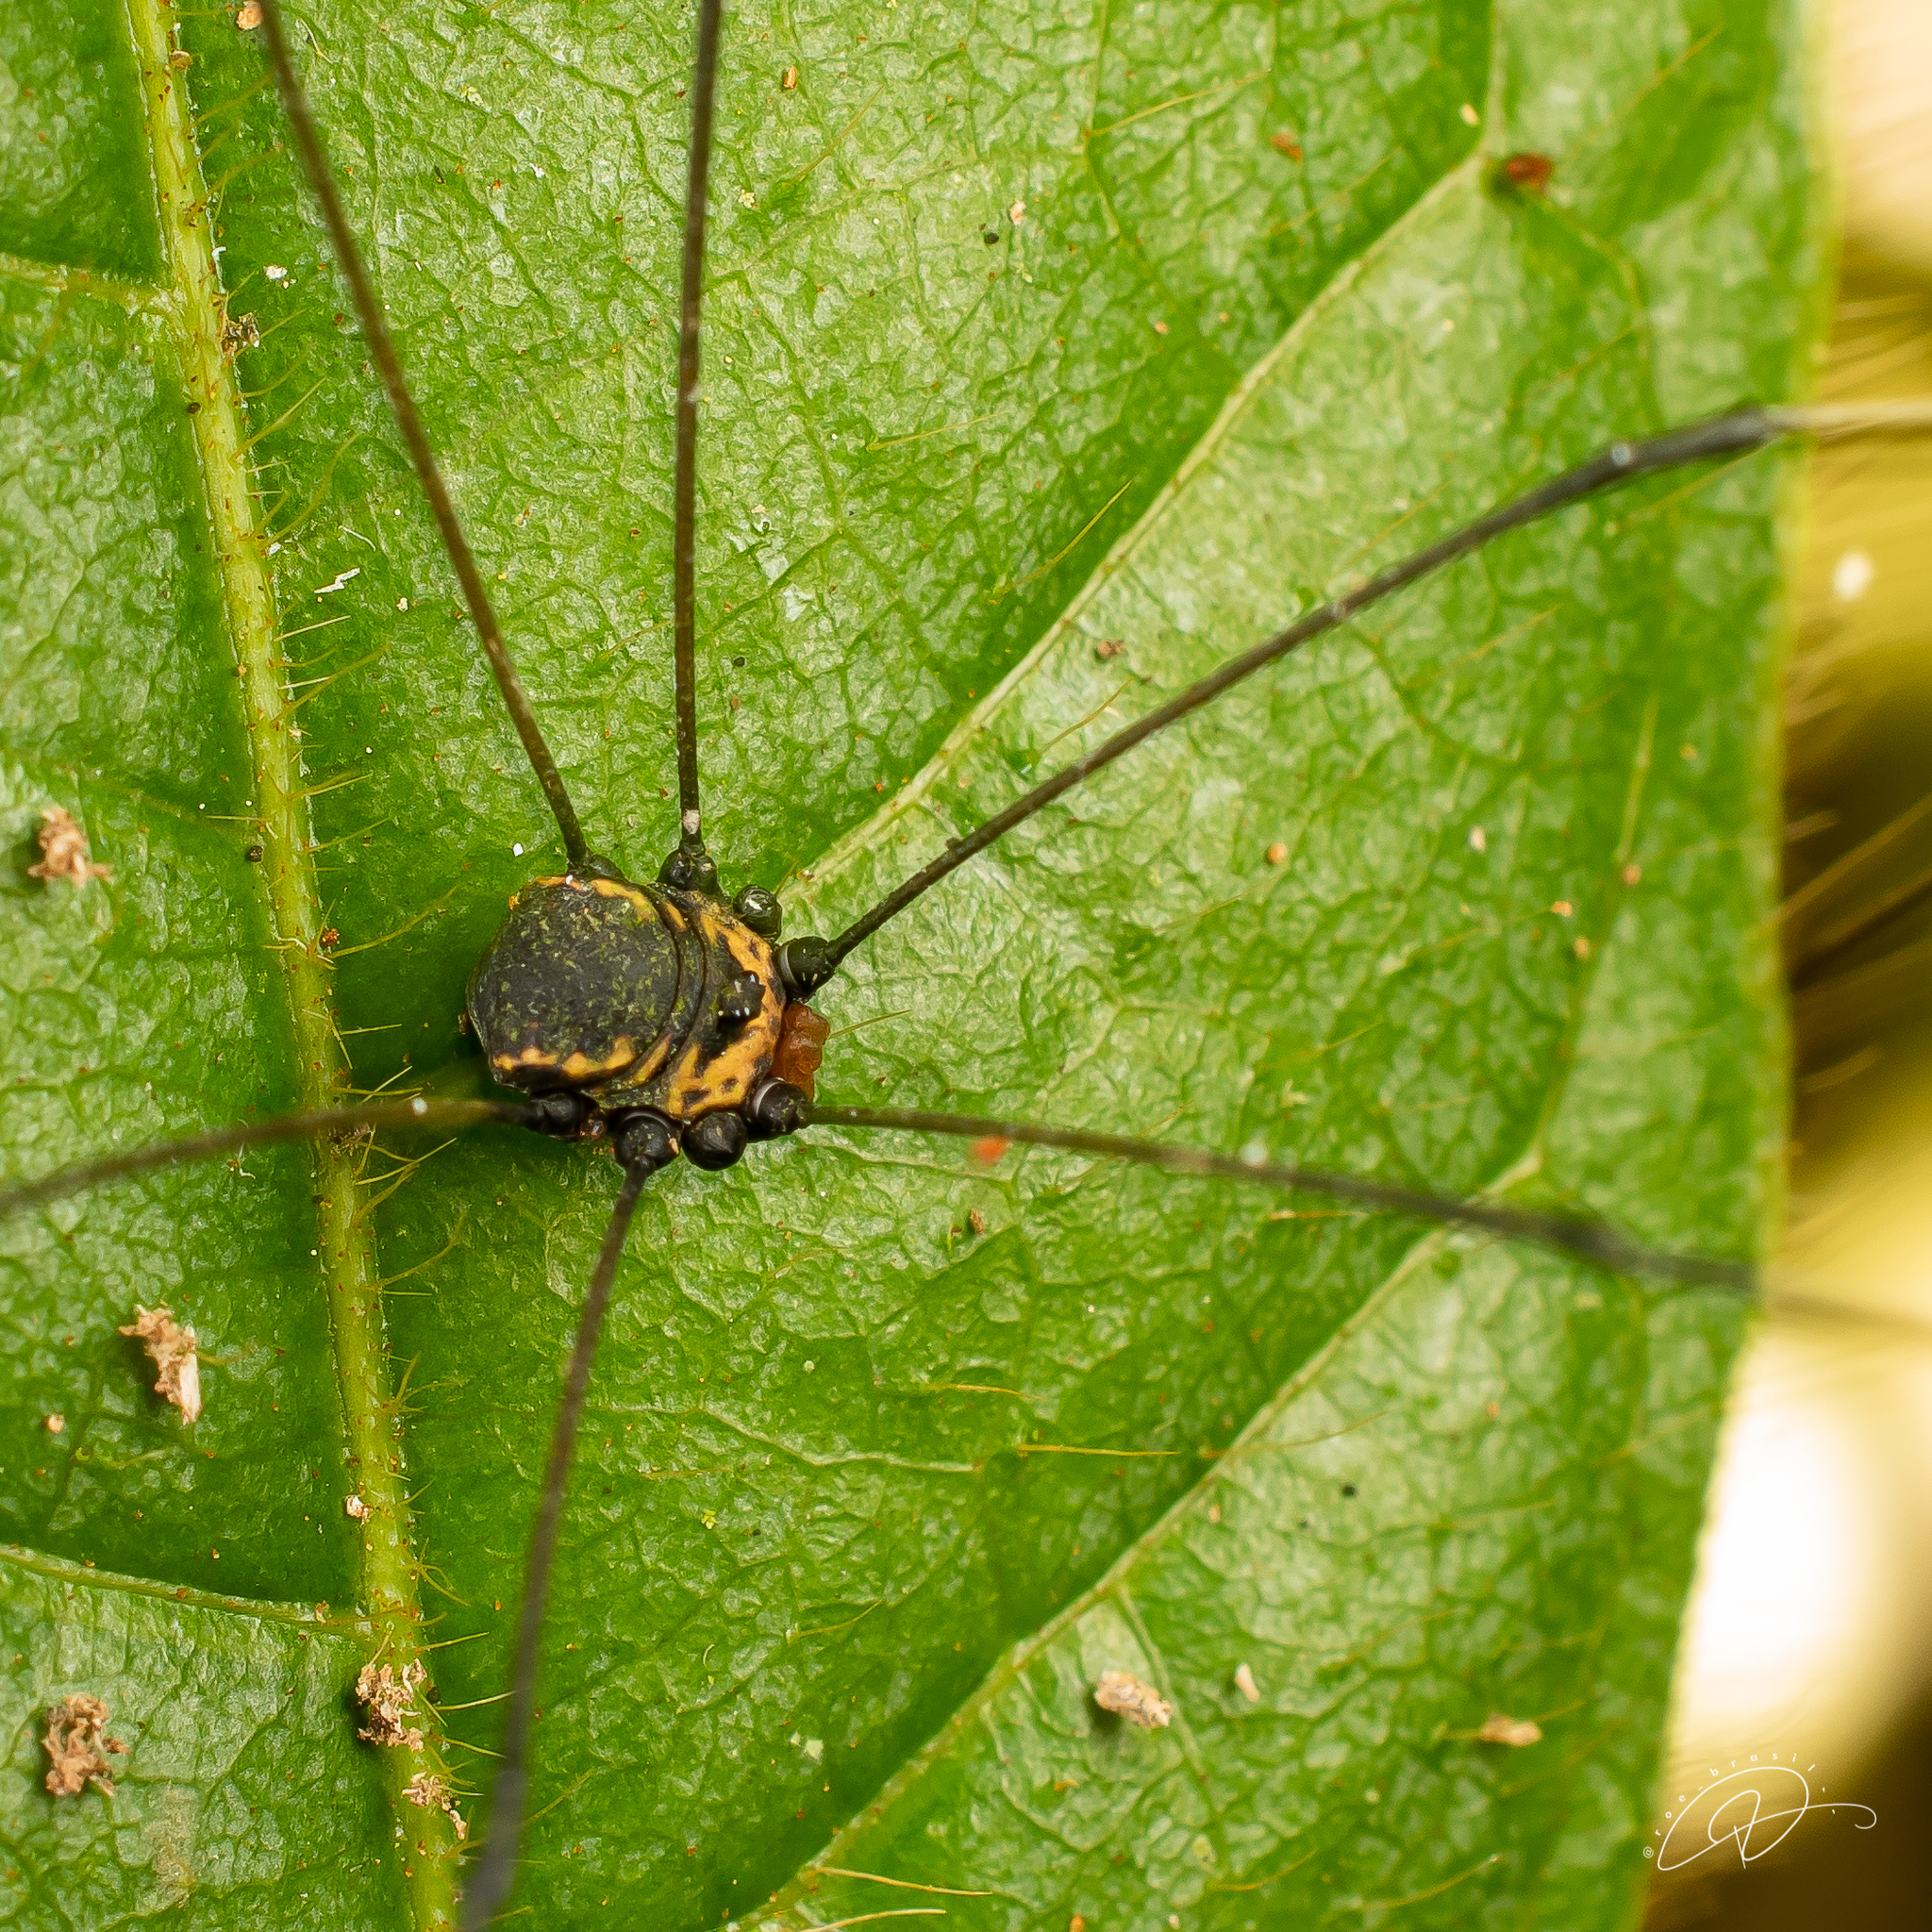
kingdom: Animalia
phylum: Arthropoda
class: Arachnida
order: Opiliones
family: Sclerosomatidae
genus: Jussara
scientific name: Jussara taeniata
